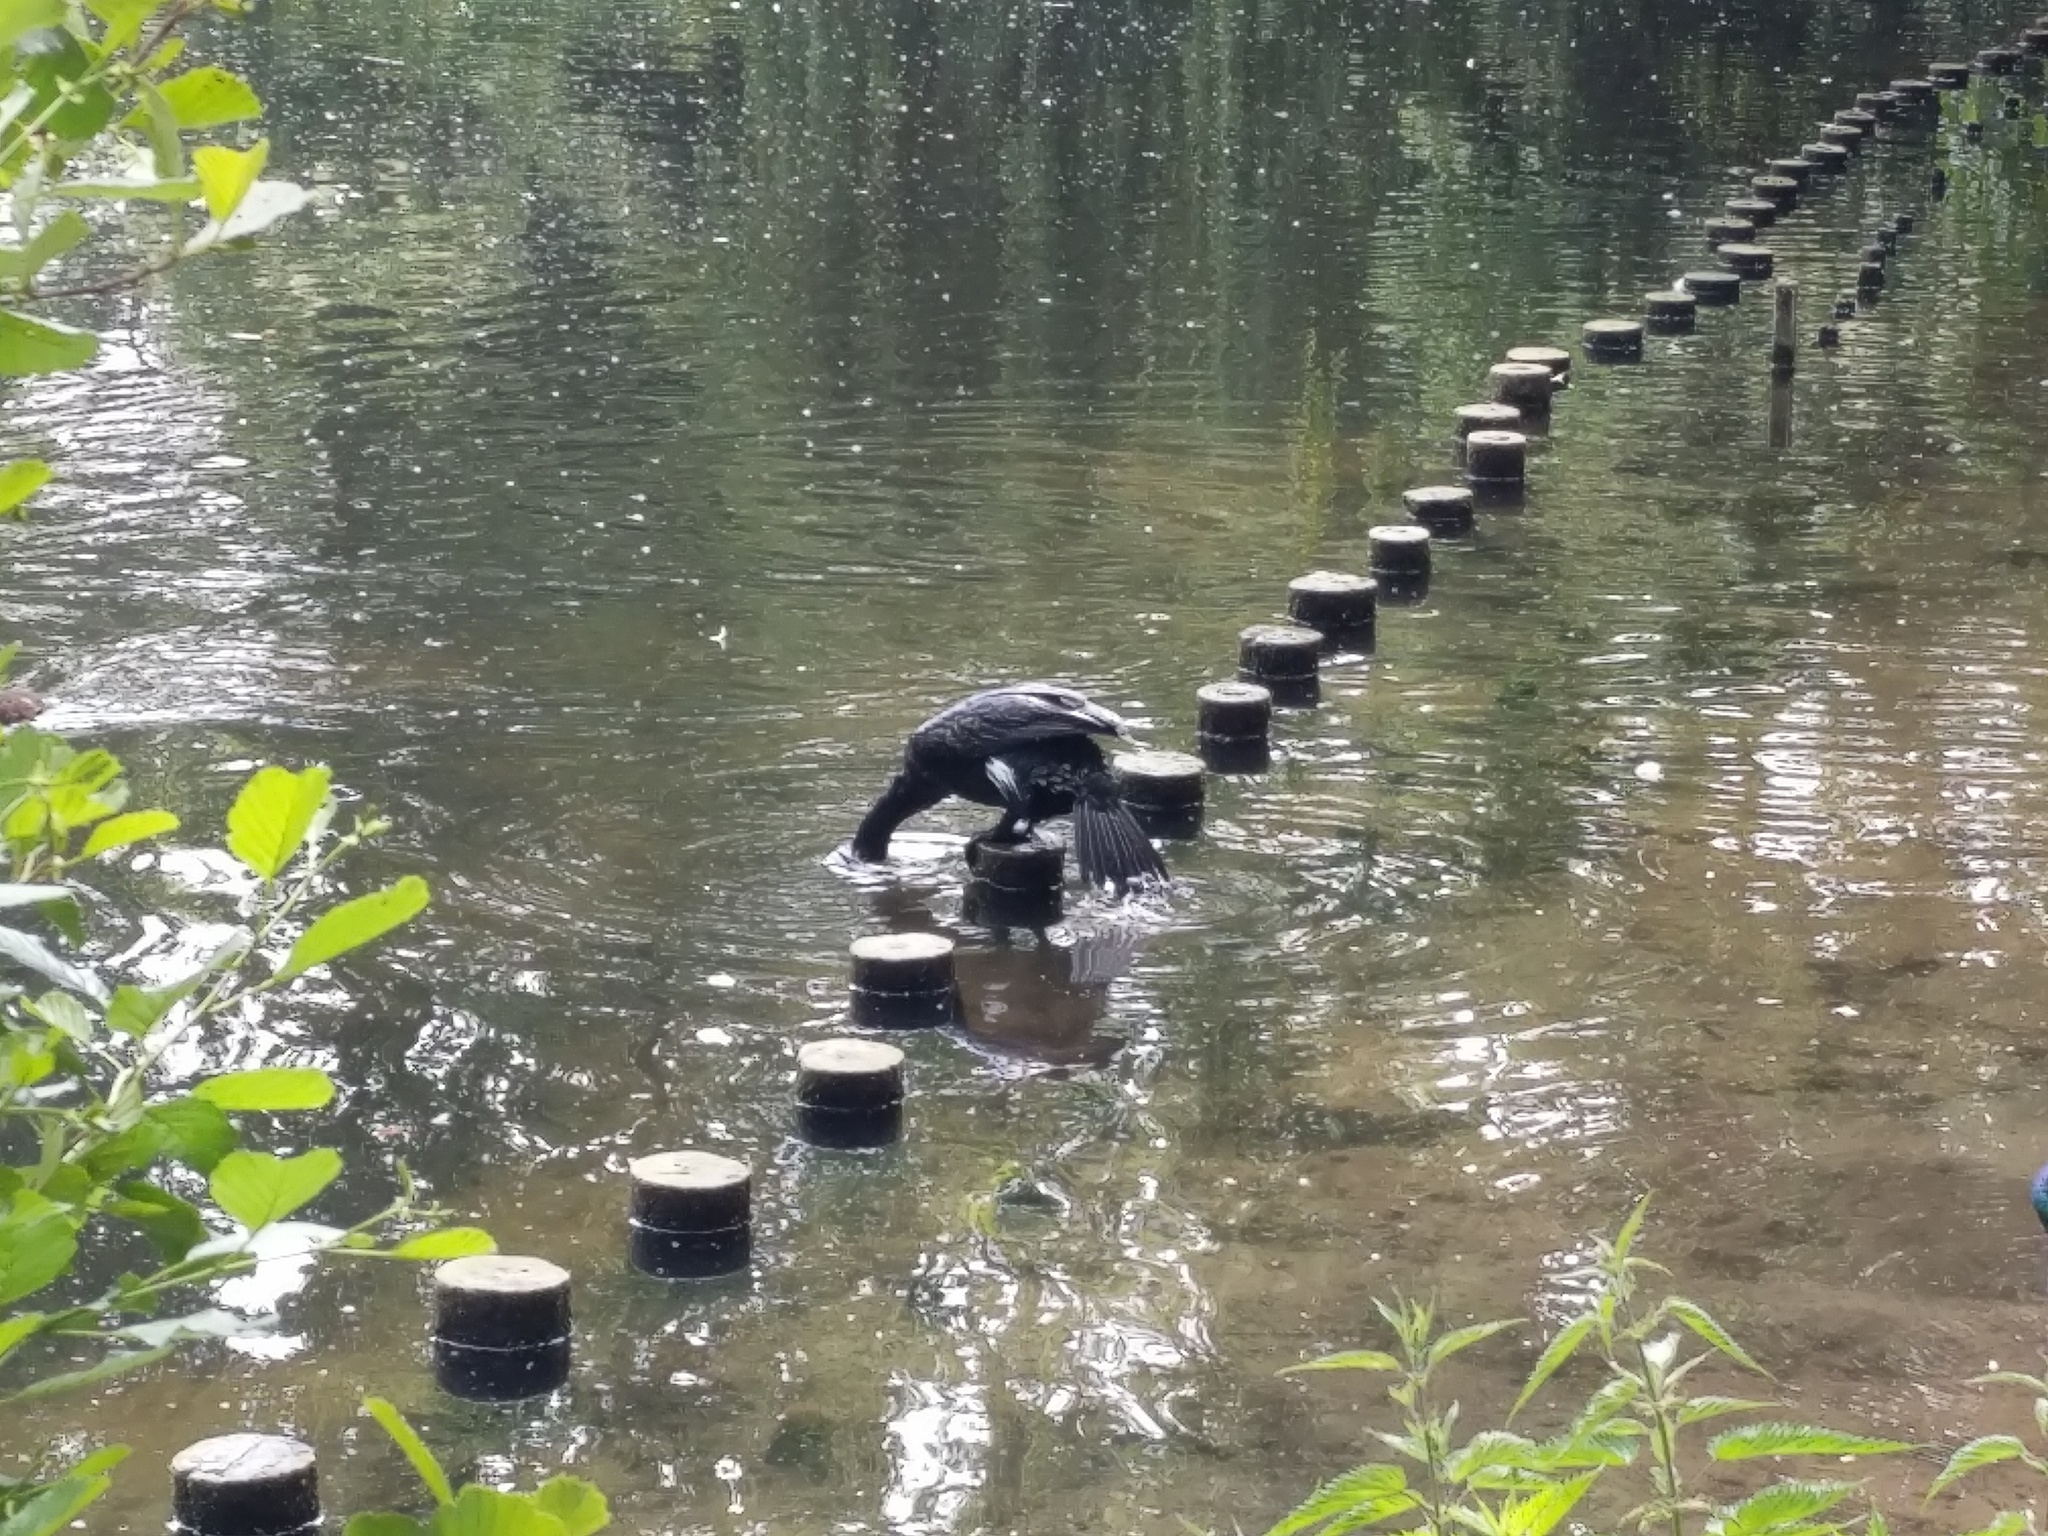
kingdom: Animalia
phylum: Chordata
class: Aves
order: Suliformes
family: Phalacrocoracidae
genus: Phalacrocorax
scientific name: Phalacrocorax carbo
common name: Great cormorant
